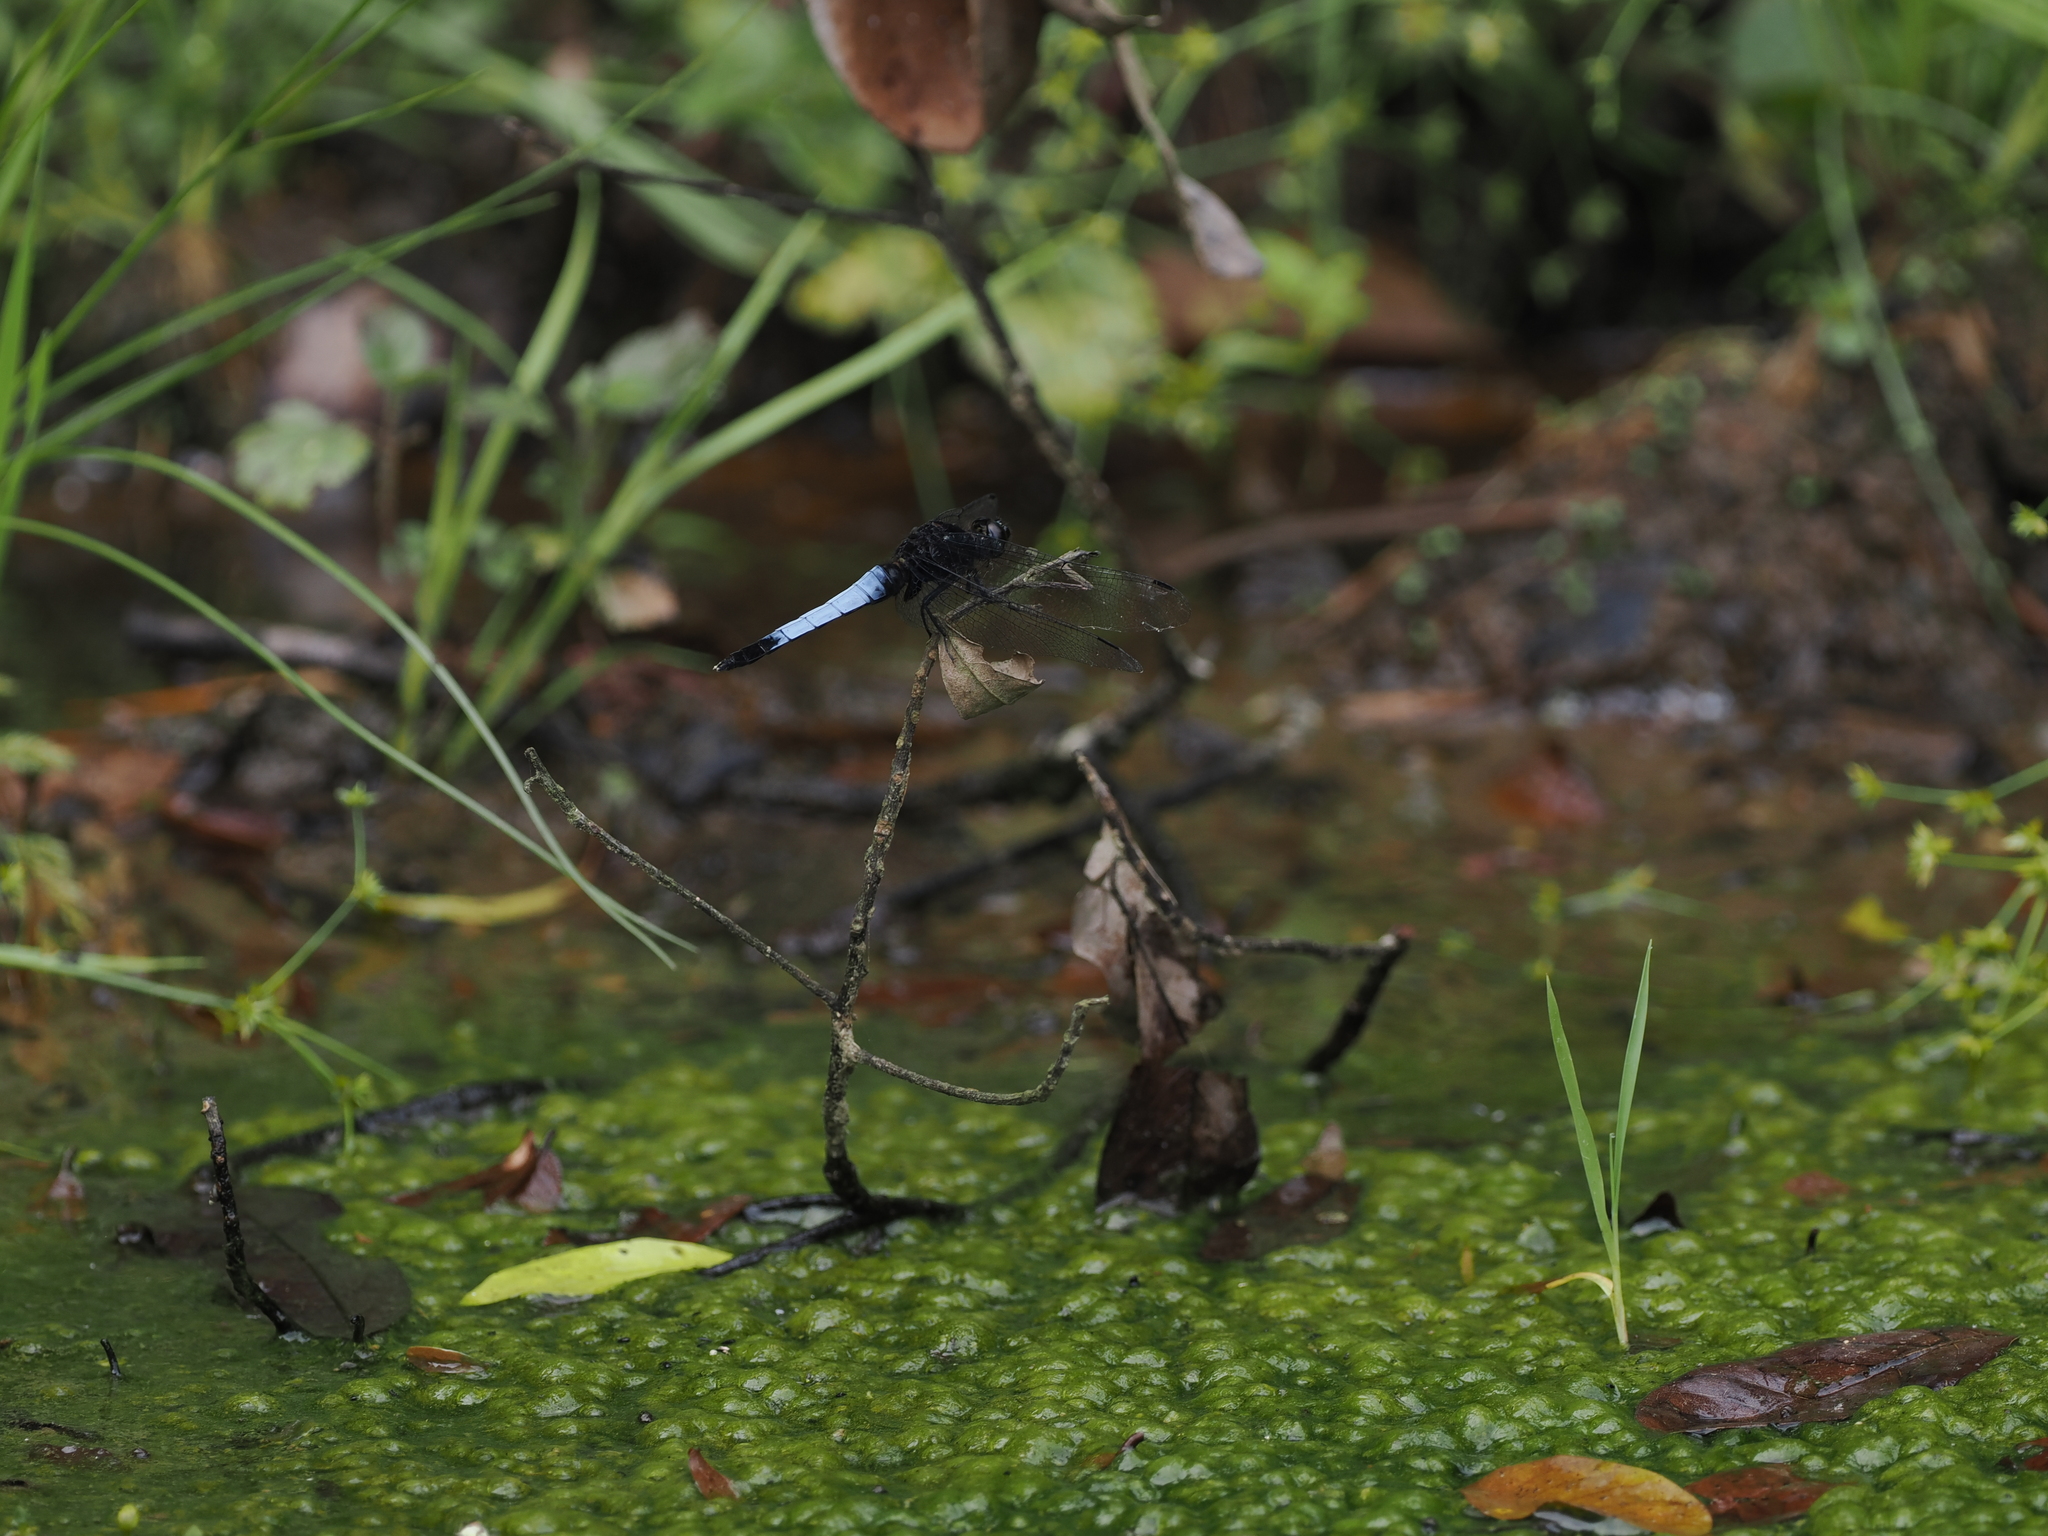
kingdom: Animalia
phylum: Arthropoda
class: Insecta
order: Odonata
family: Libellulidae
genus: Orthetrum
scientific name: Orthetrum triangulare
